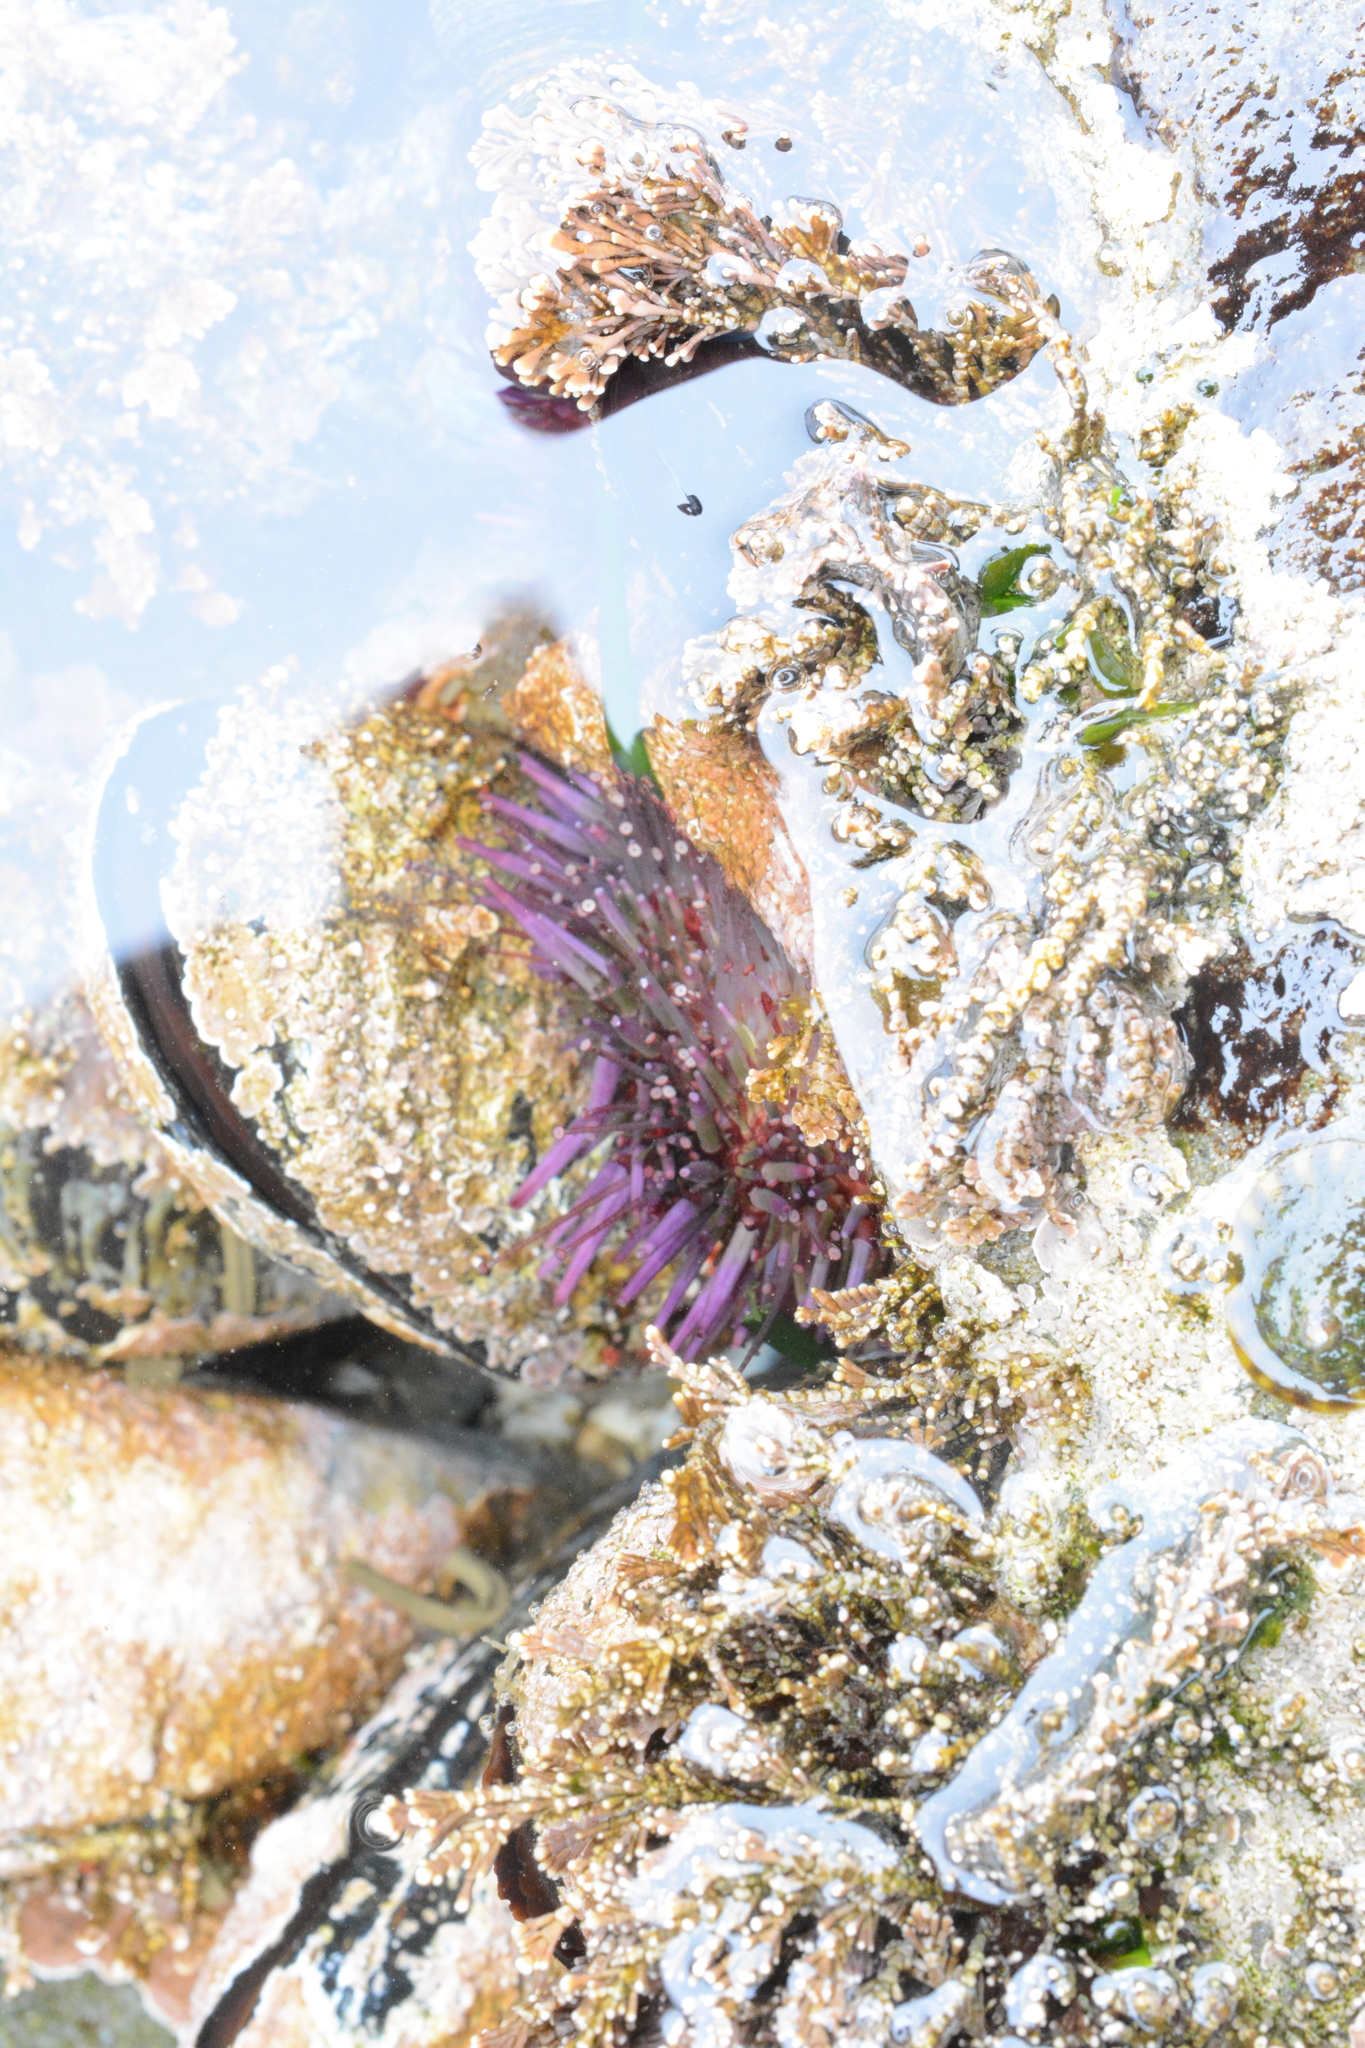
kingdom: Animalia
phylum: Echinodermata
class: Echinoidea
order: Camarodonta
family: Strongylocentrotidae
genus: Strongylocentrotus
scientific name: Strongylocentrotus purpuratus
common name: Purple sea urchin
